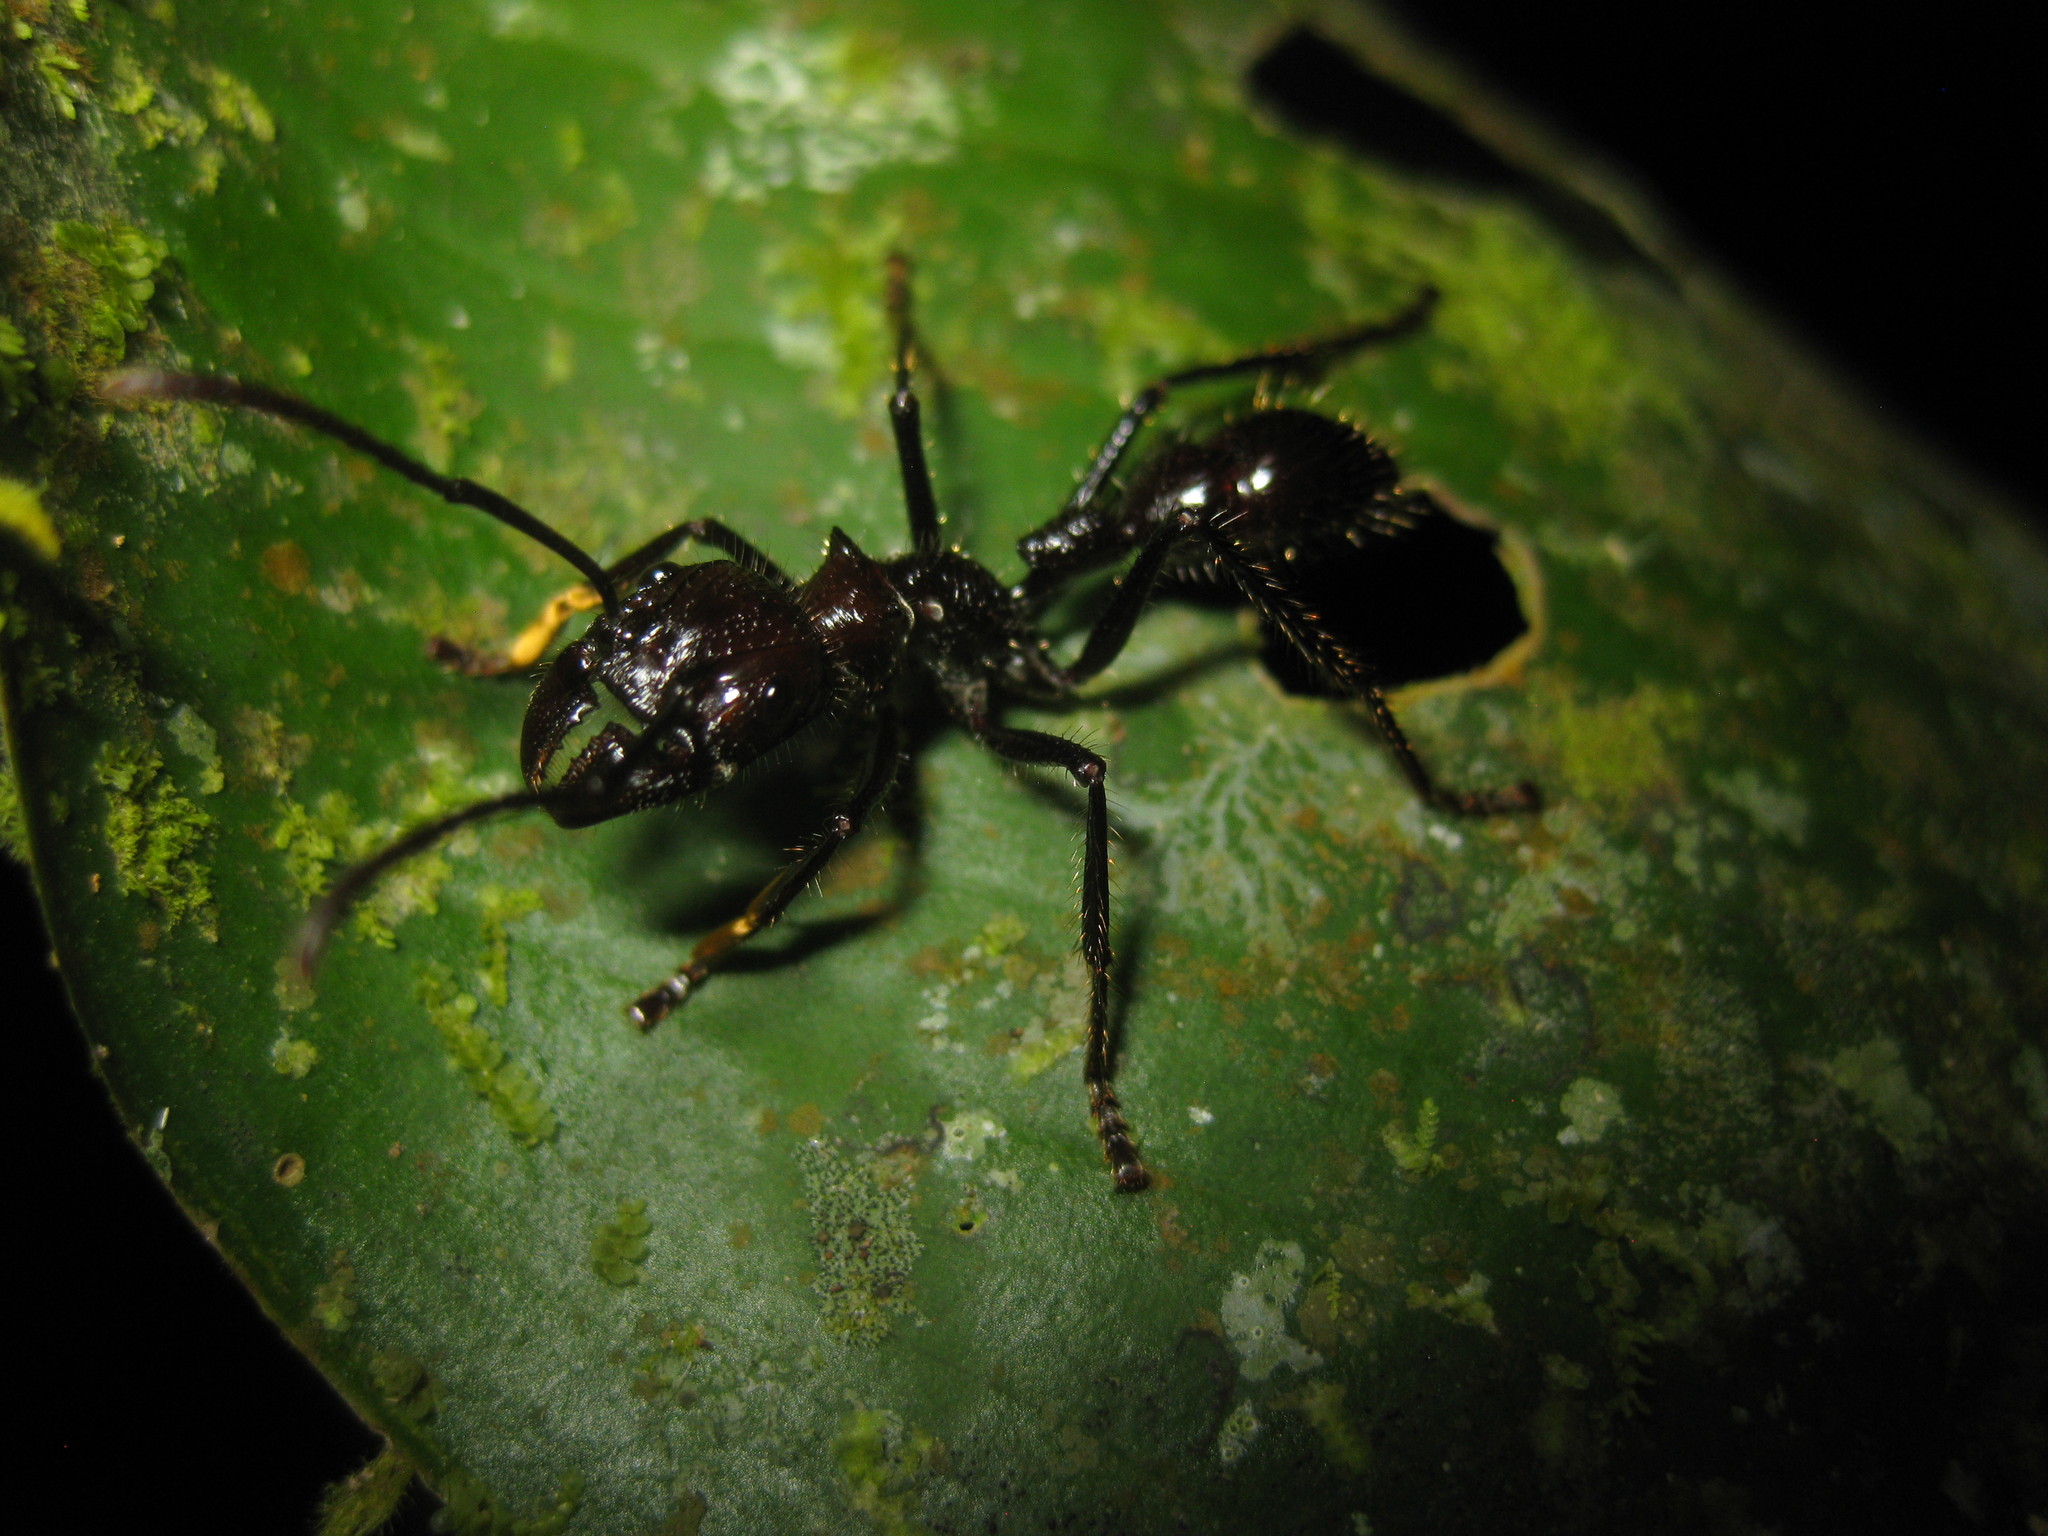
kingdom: Animalia
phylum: Arthropoda
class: Insecta
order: Hymenoptera
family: Formicidae
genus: Paraponera
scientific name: Paraponera clavata
